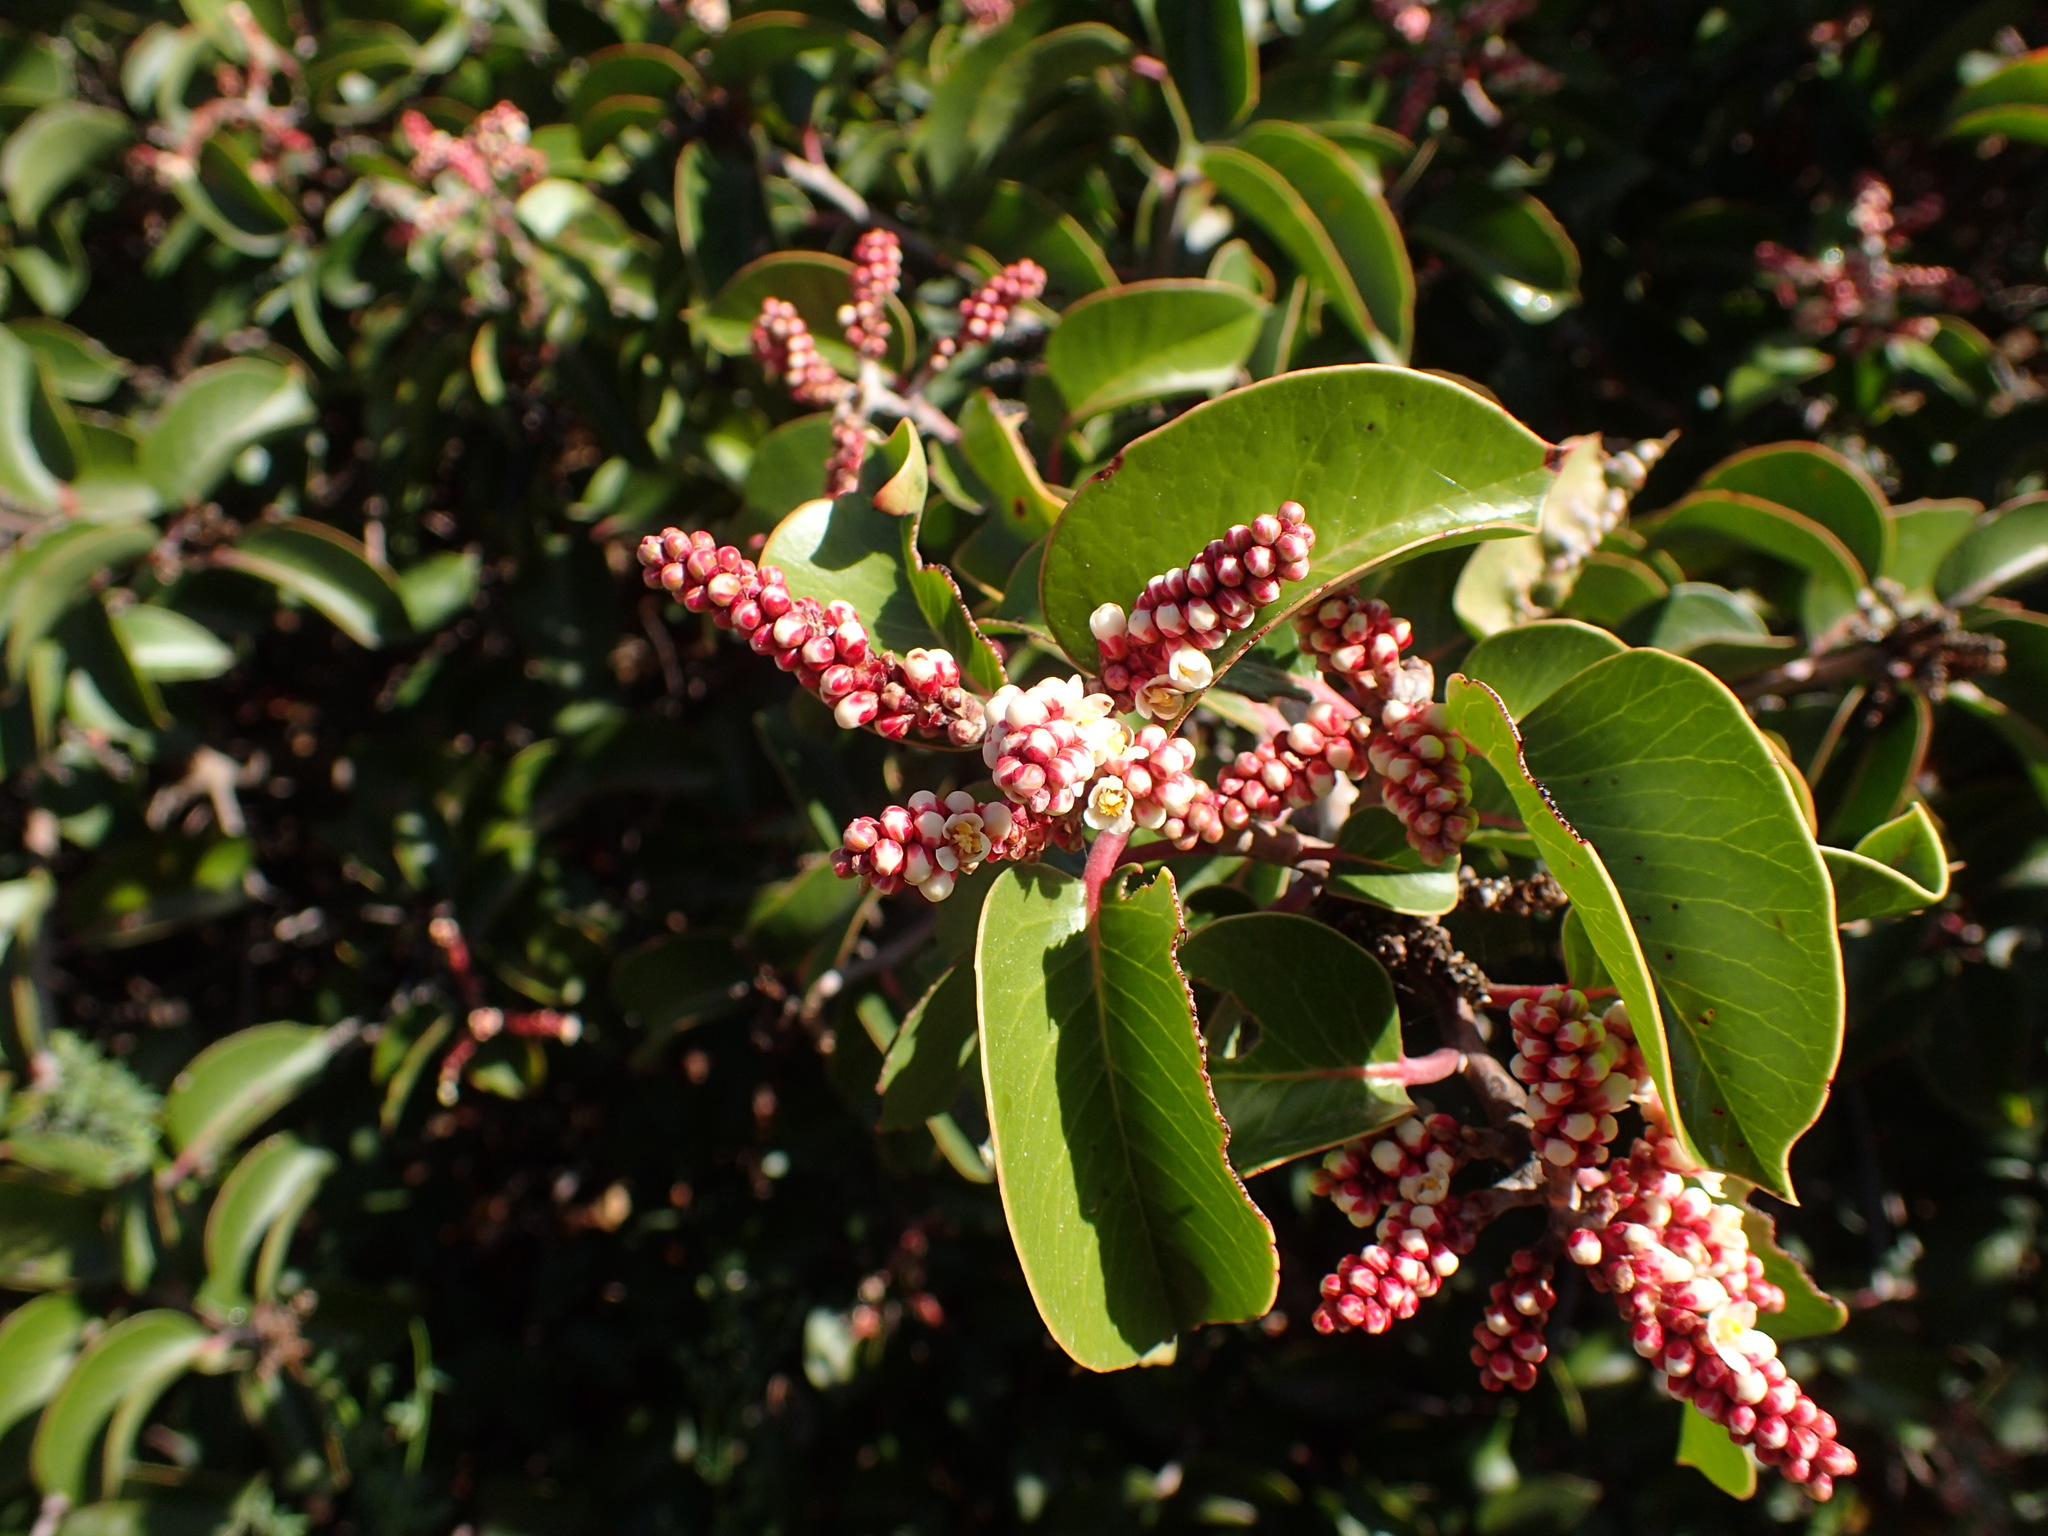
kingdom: Plantae
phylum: Tracheophyta
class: Magnoliopsida
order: Sapindales
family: Anacardiaceae
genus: Rhus
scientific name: Rhus ovata
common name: Sugar sumac
